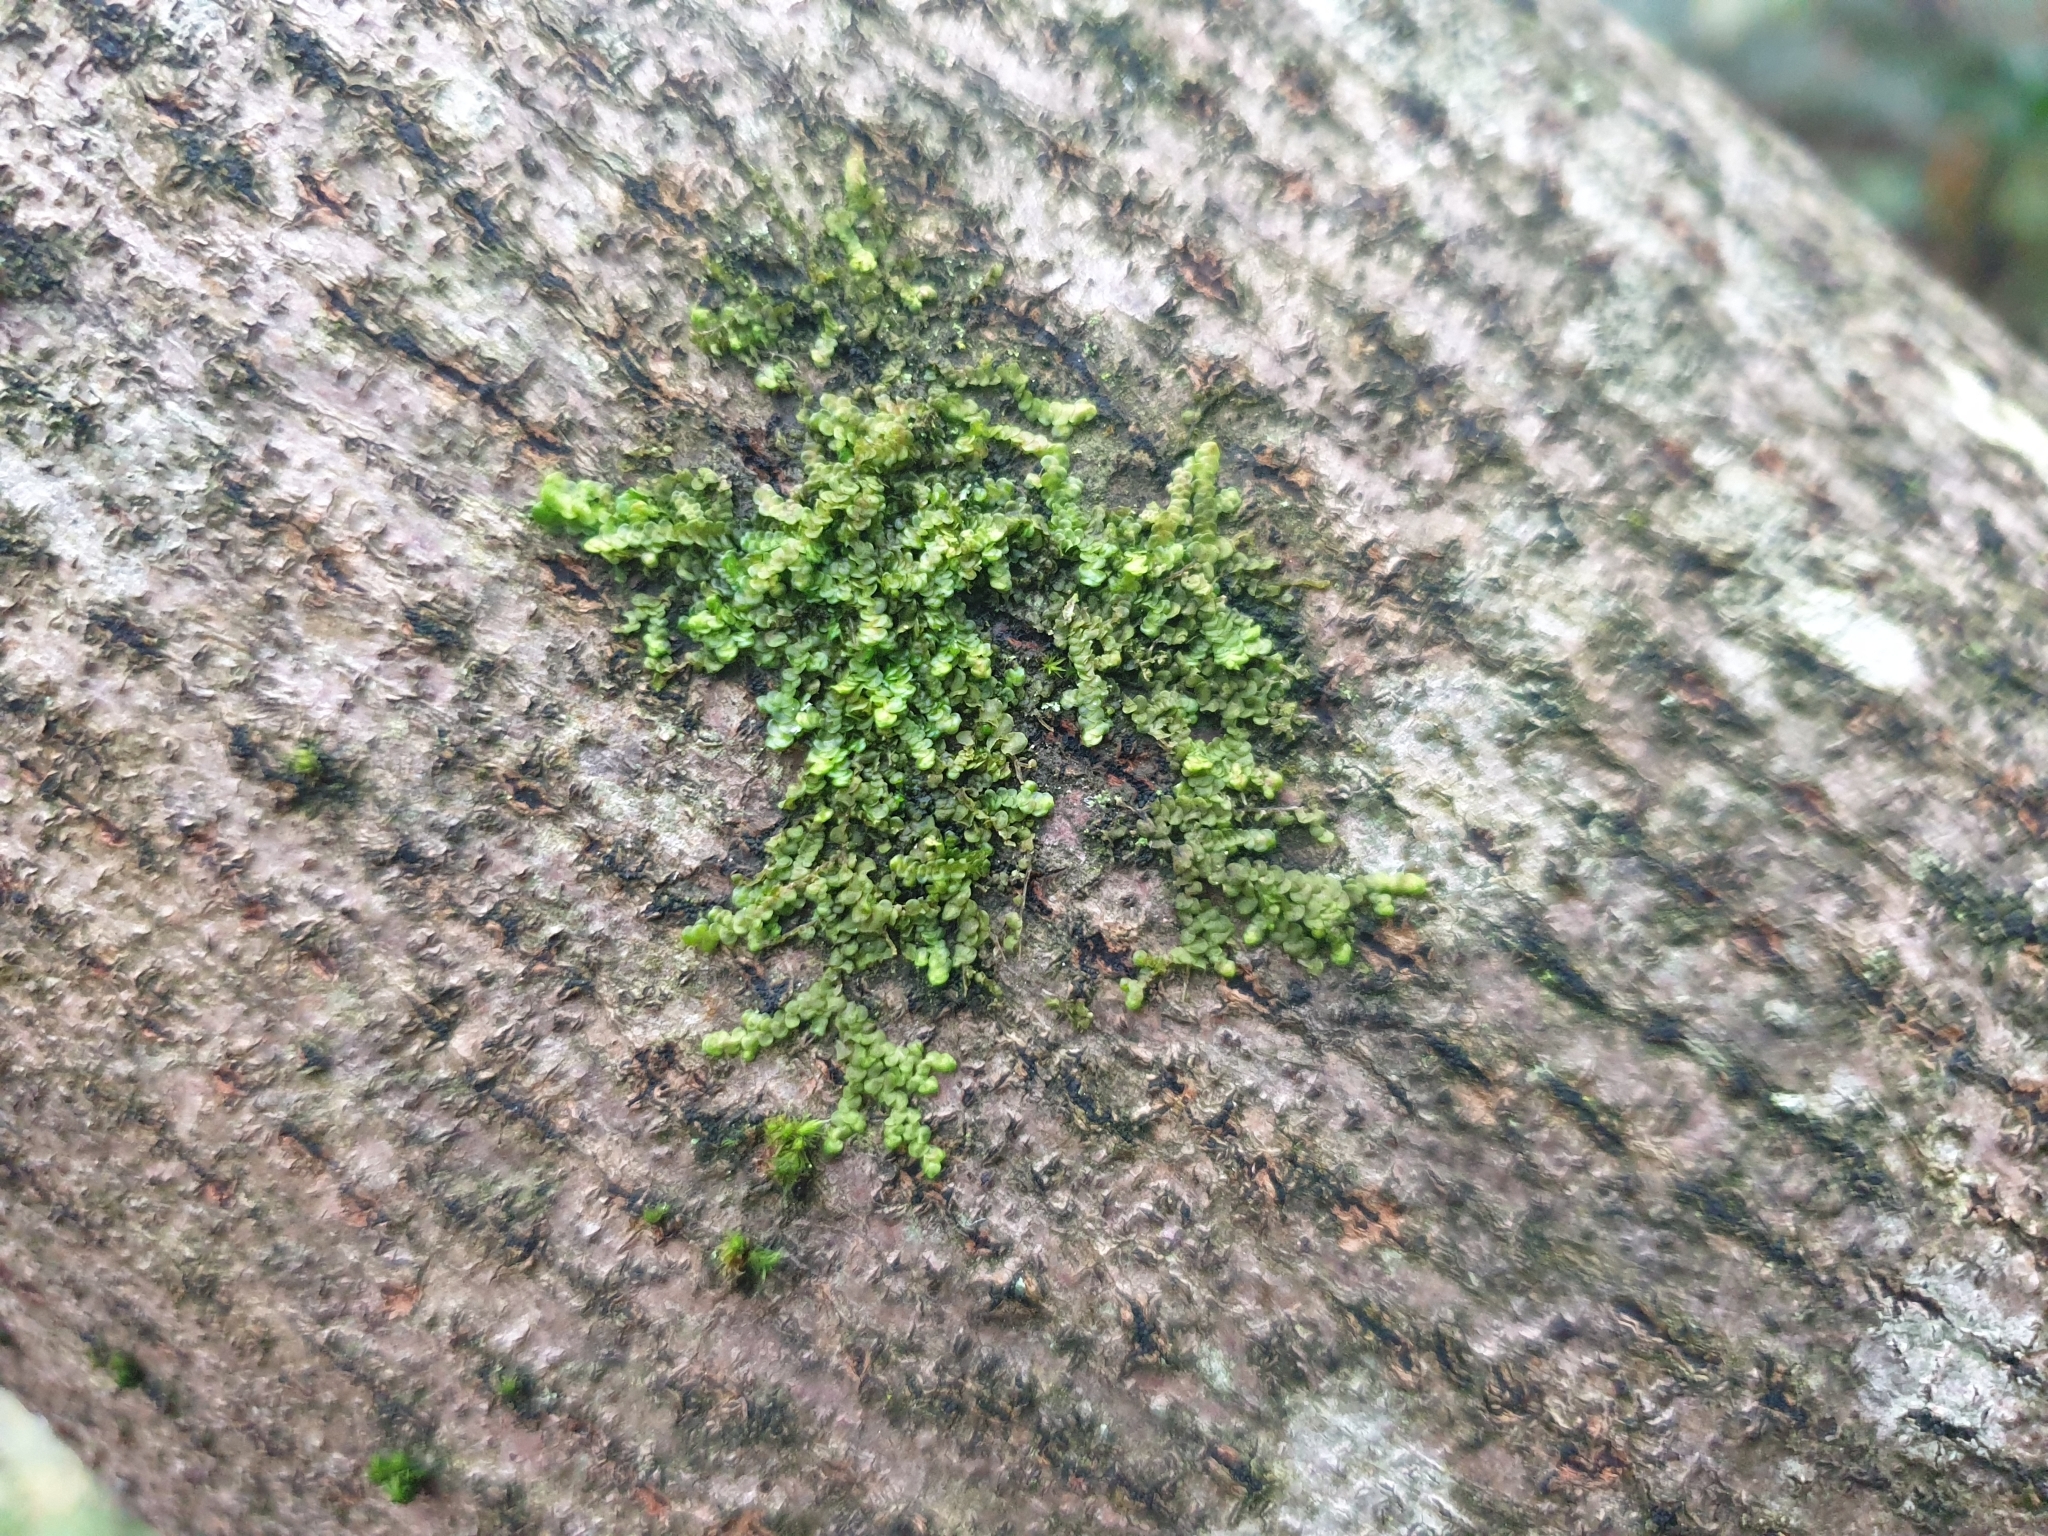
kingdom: Plantae
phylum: Marchantiophyta
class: Jungermanniopsida
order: Porellales
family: Frullaniaceae
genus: Frullania
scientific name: Frullania dilatata
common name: Dilated scalewort
